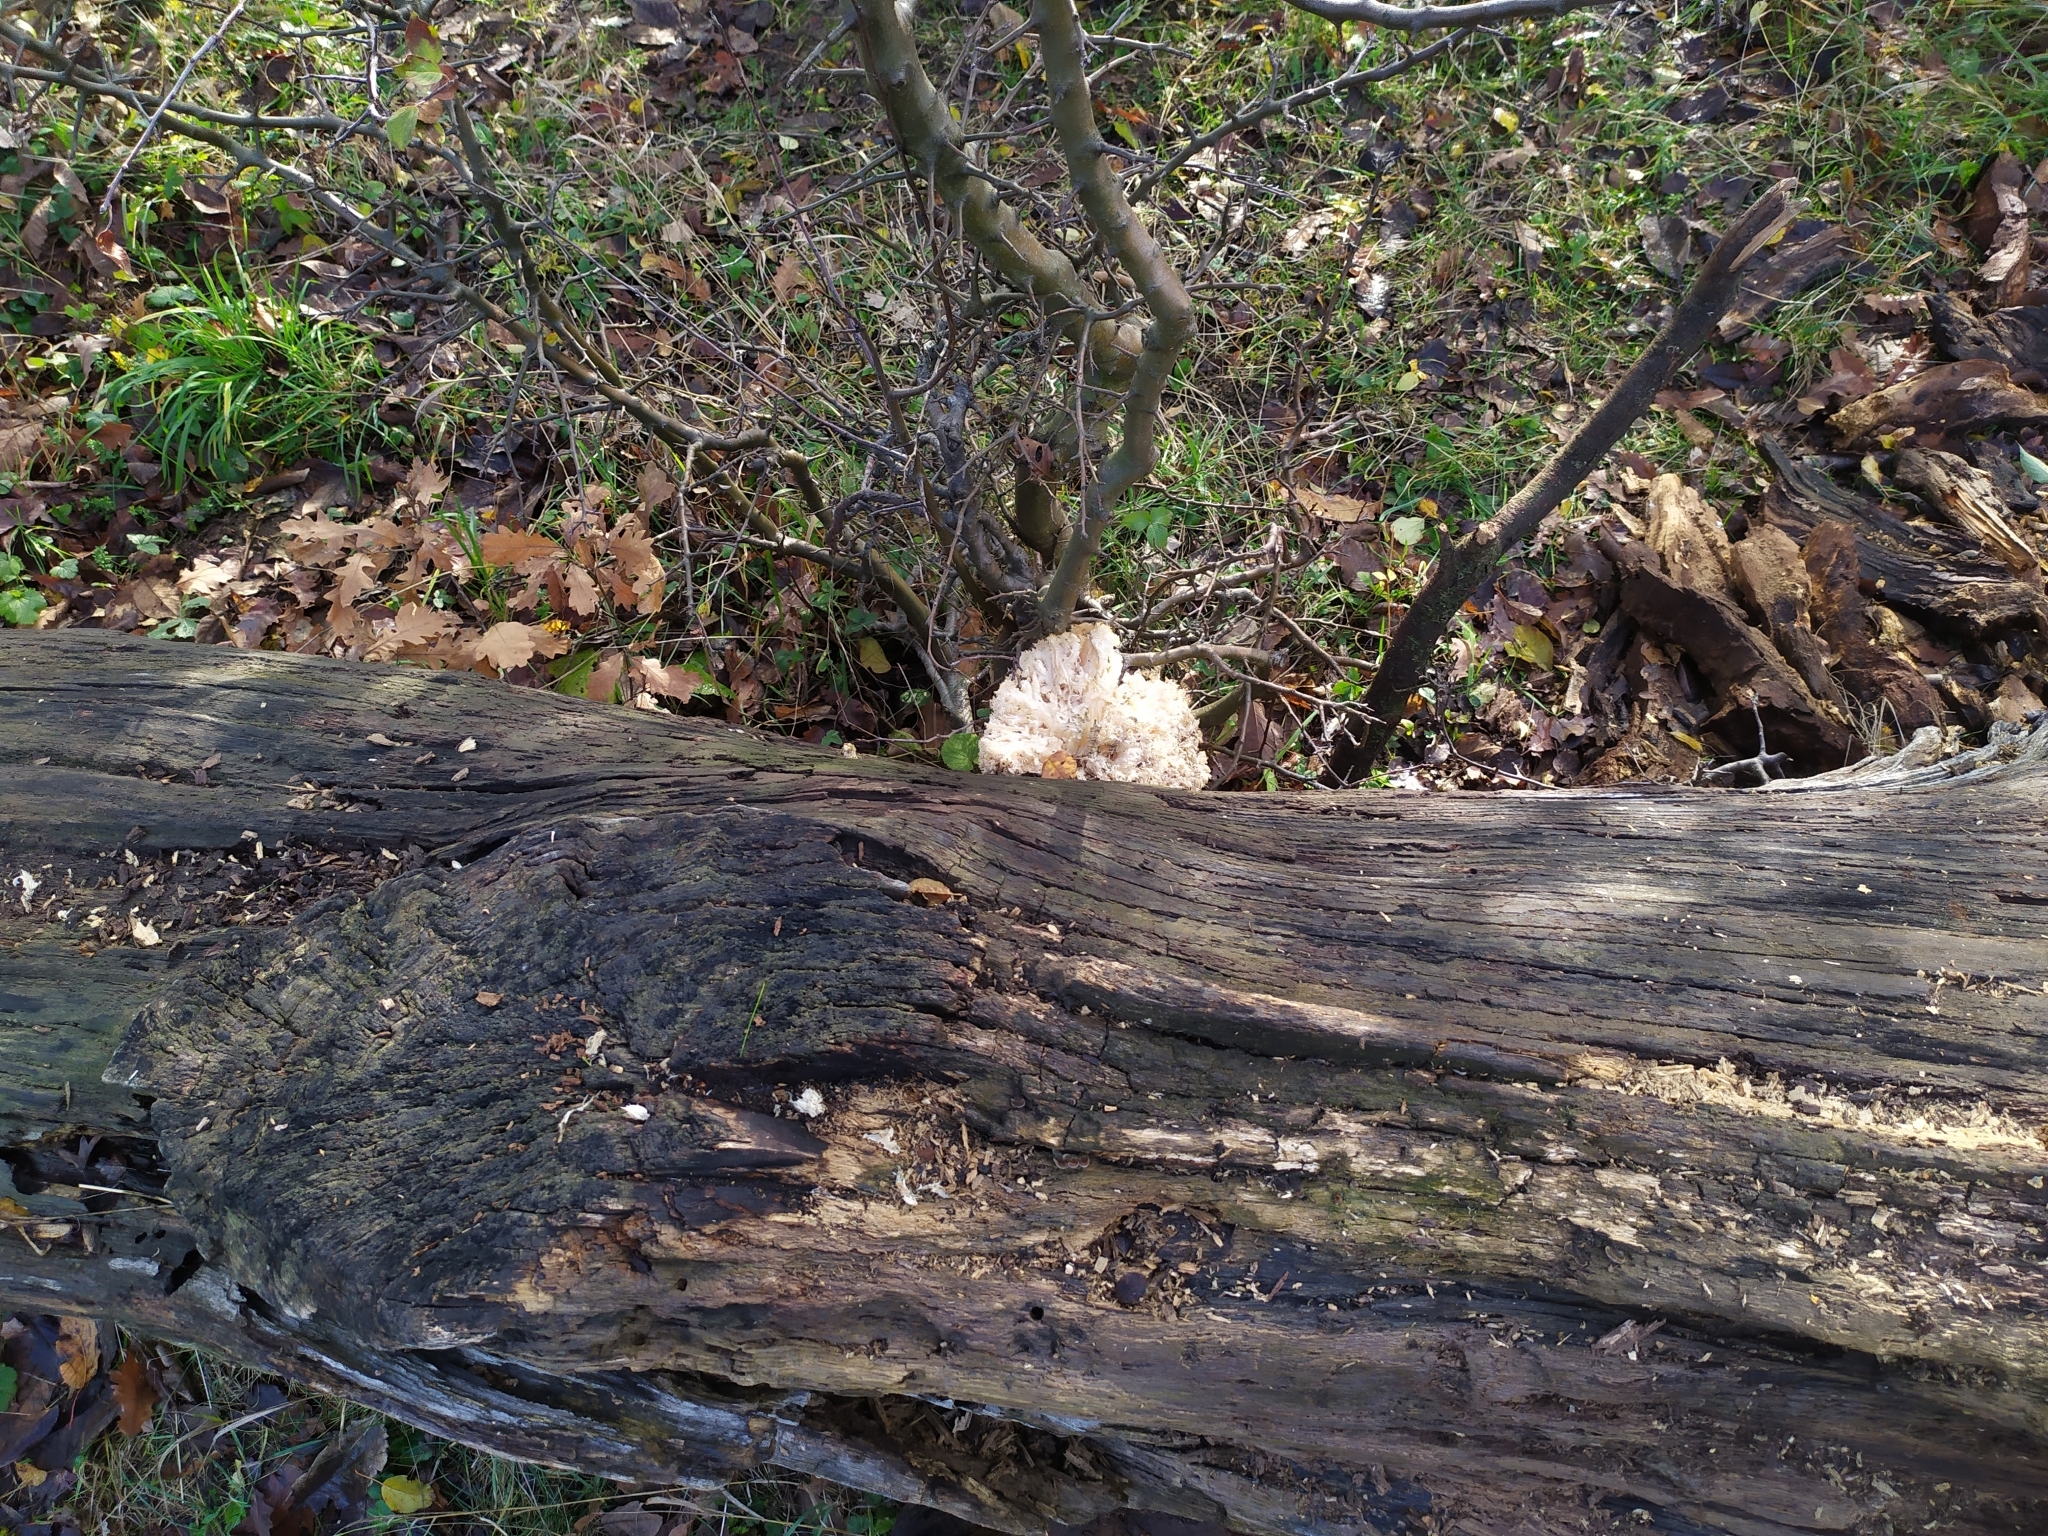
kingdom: Fungi
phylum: Basidiomycota
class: Agaricomycetes
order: Russulales
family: Hericiaceae
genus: Hericium
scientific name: Hericium coralloides
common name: Coral tooth
